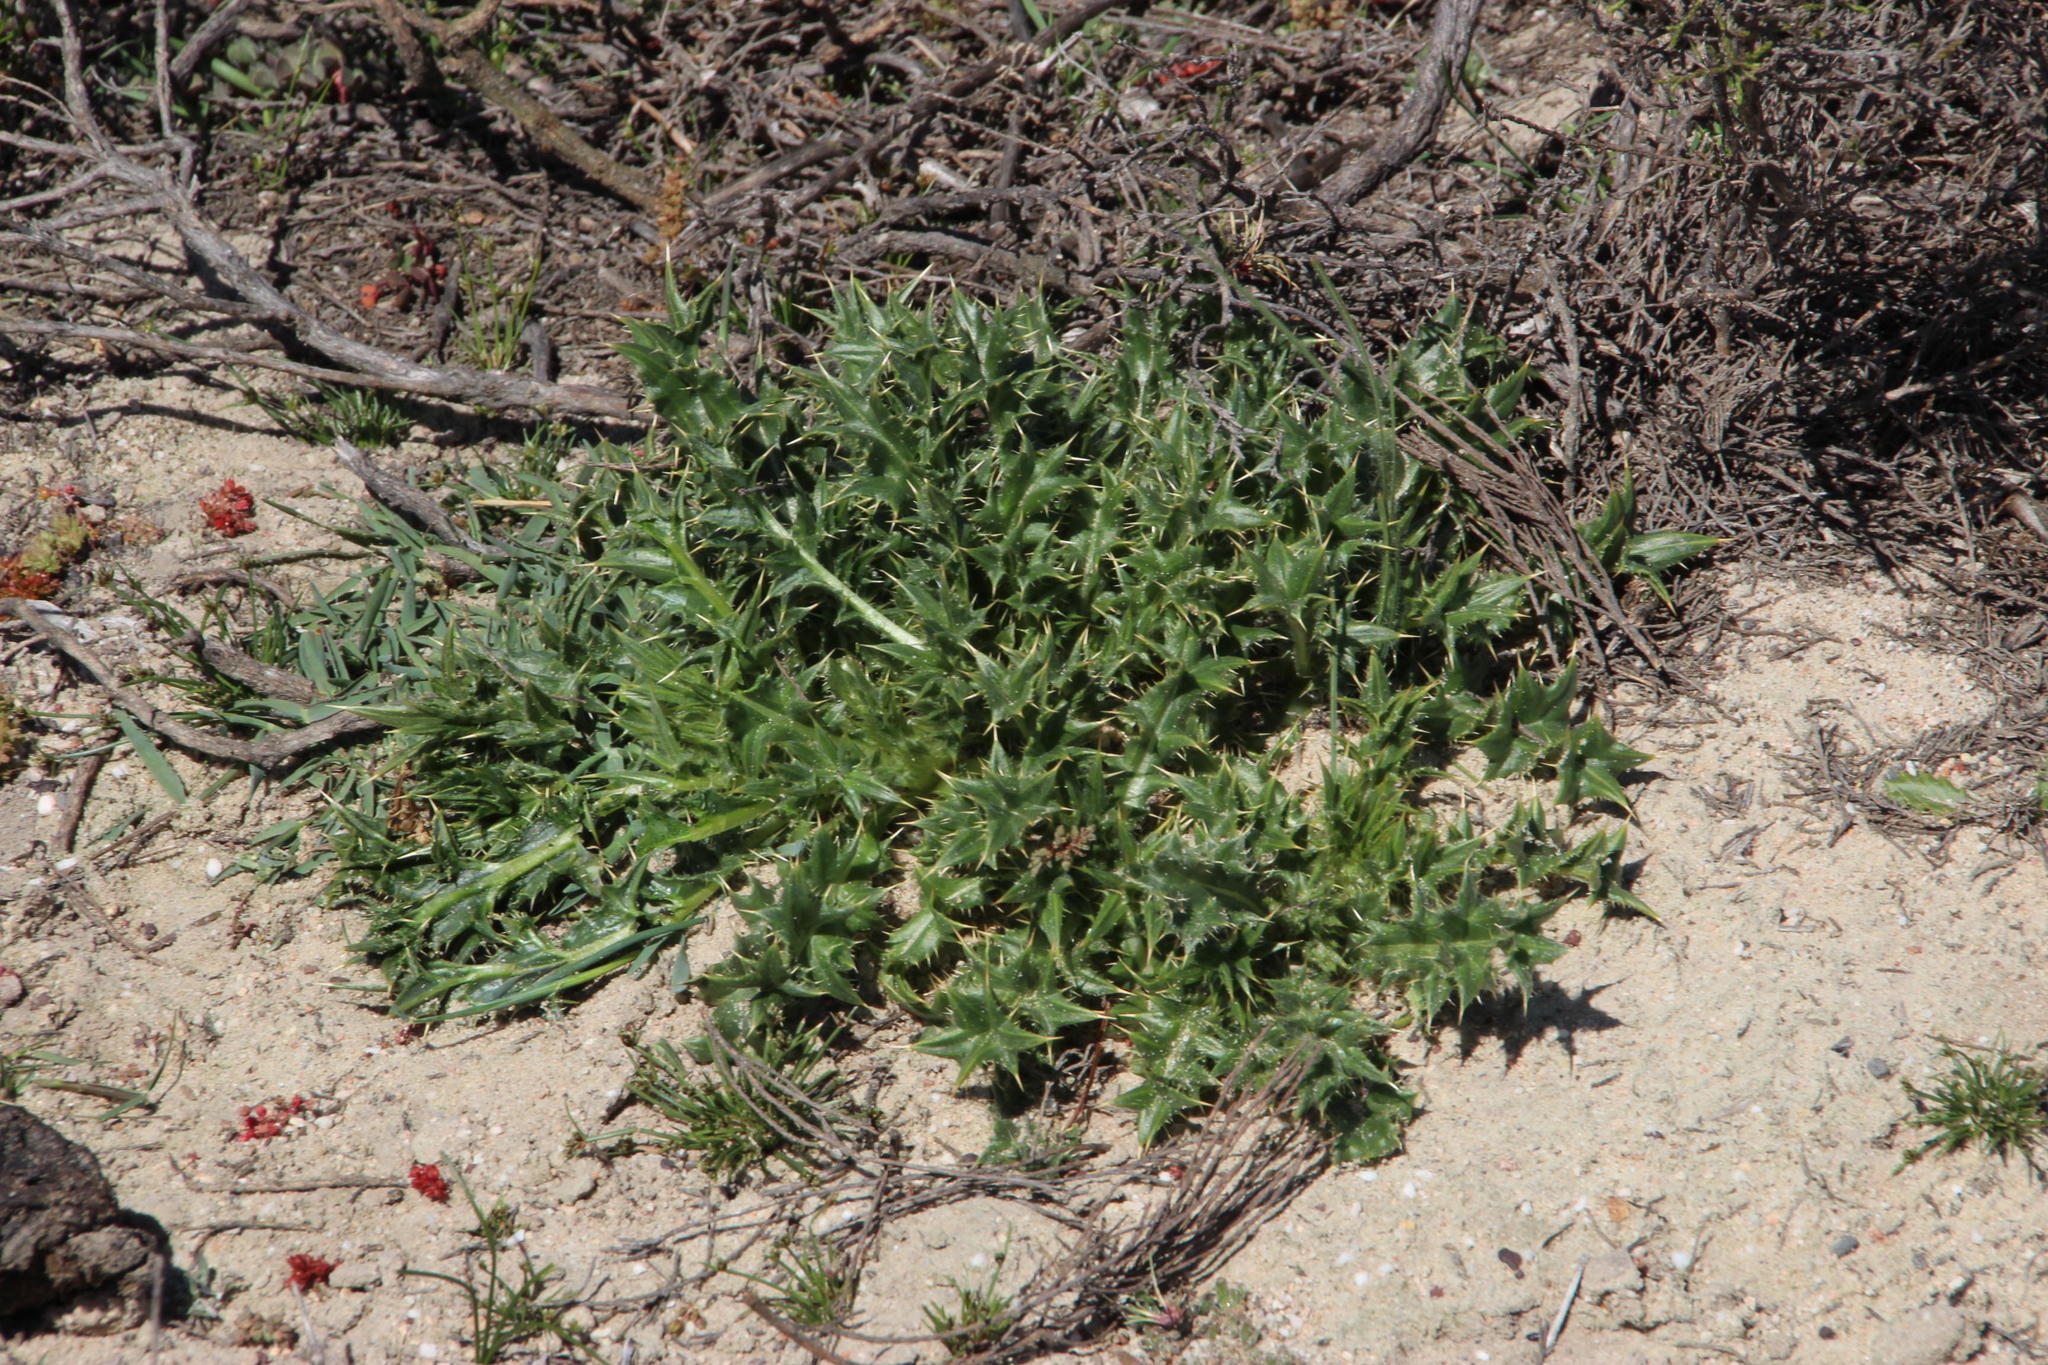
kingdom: Plantae
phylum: Tracheophyta
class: Magnoliopsida
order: Asterales
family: Asteraceae
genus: Berkheya
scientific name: Berkheya onobromoides
